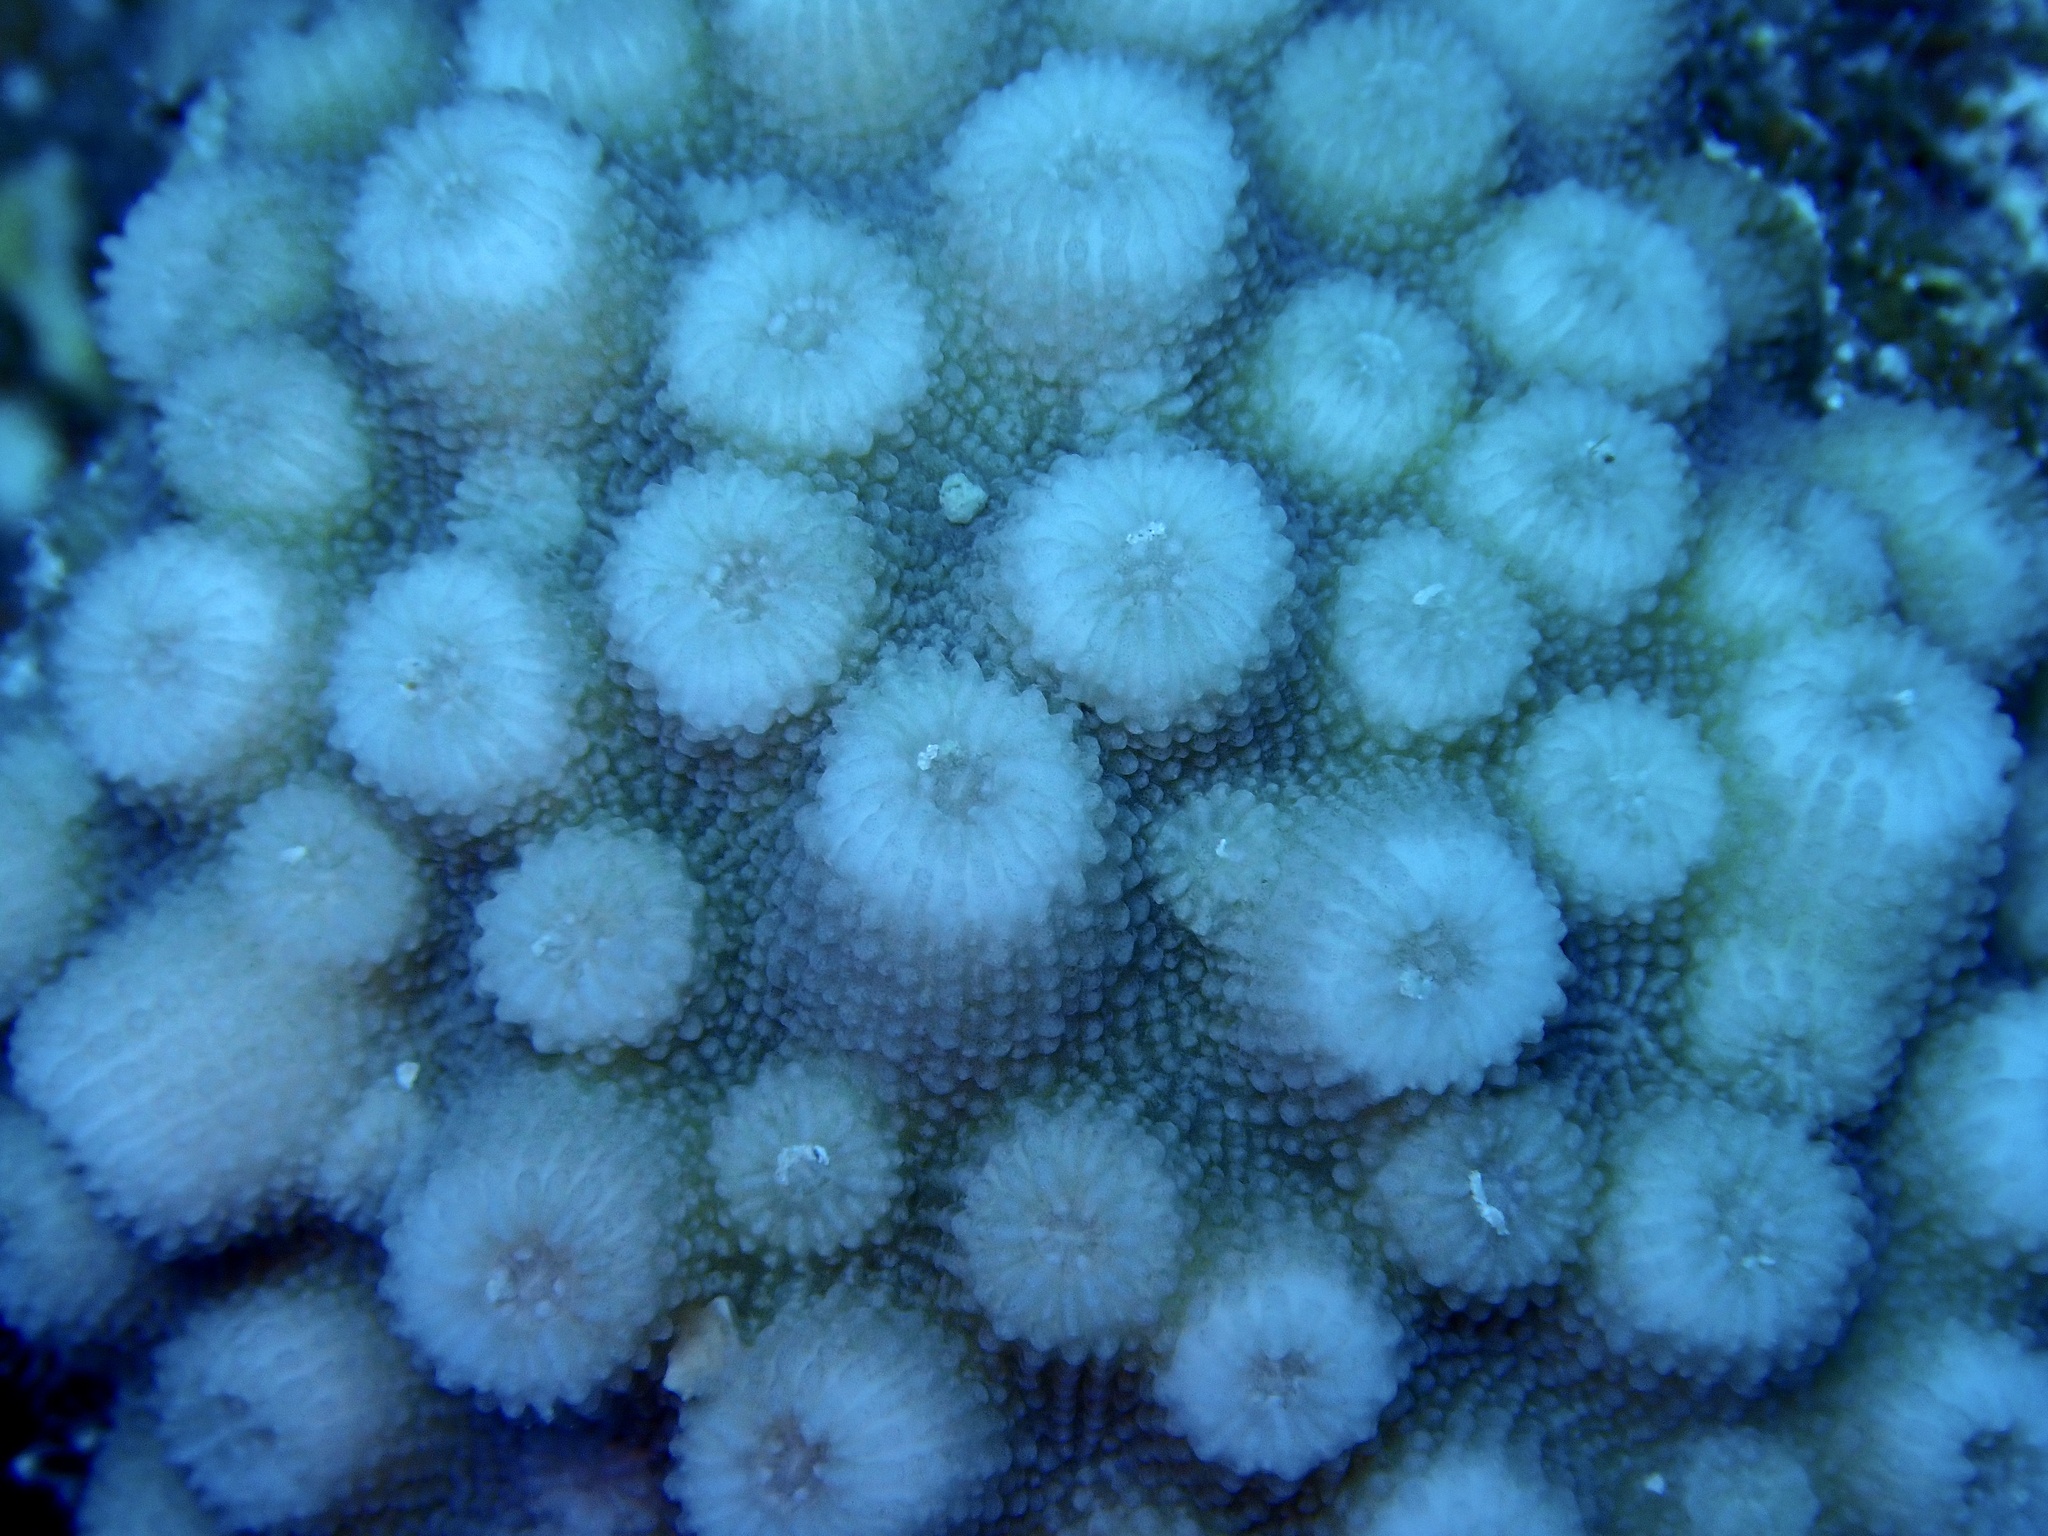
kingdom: Animalia
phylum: Cnidaria
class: Anthozoa
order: Scleractinia
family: Merulinidae
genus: Echinopora
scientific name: Echinopora forskaliana
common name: Hedgehog coral
